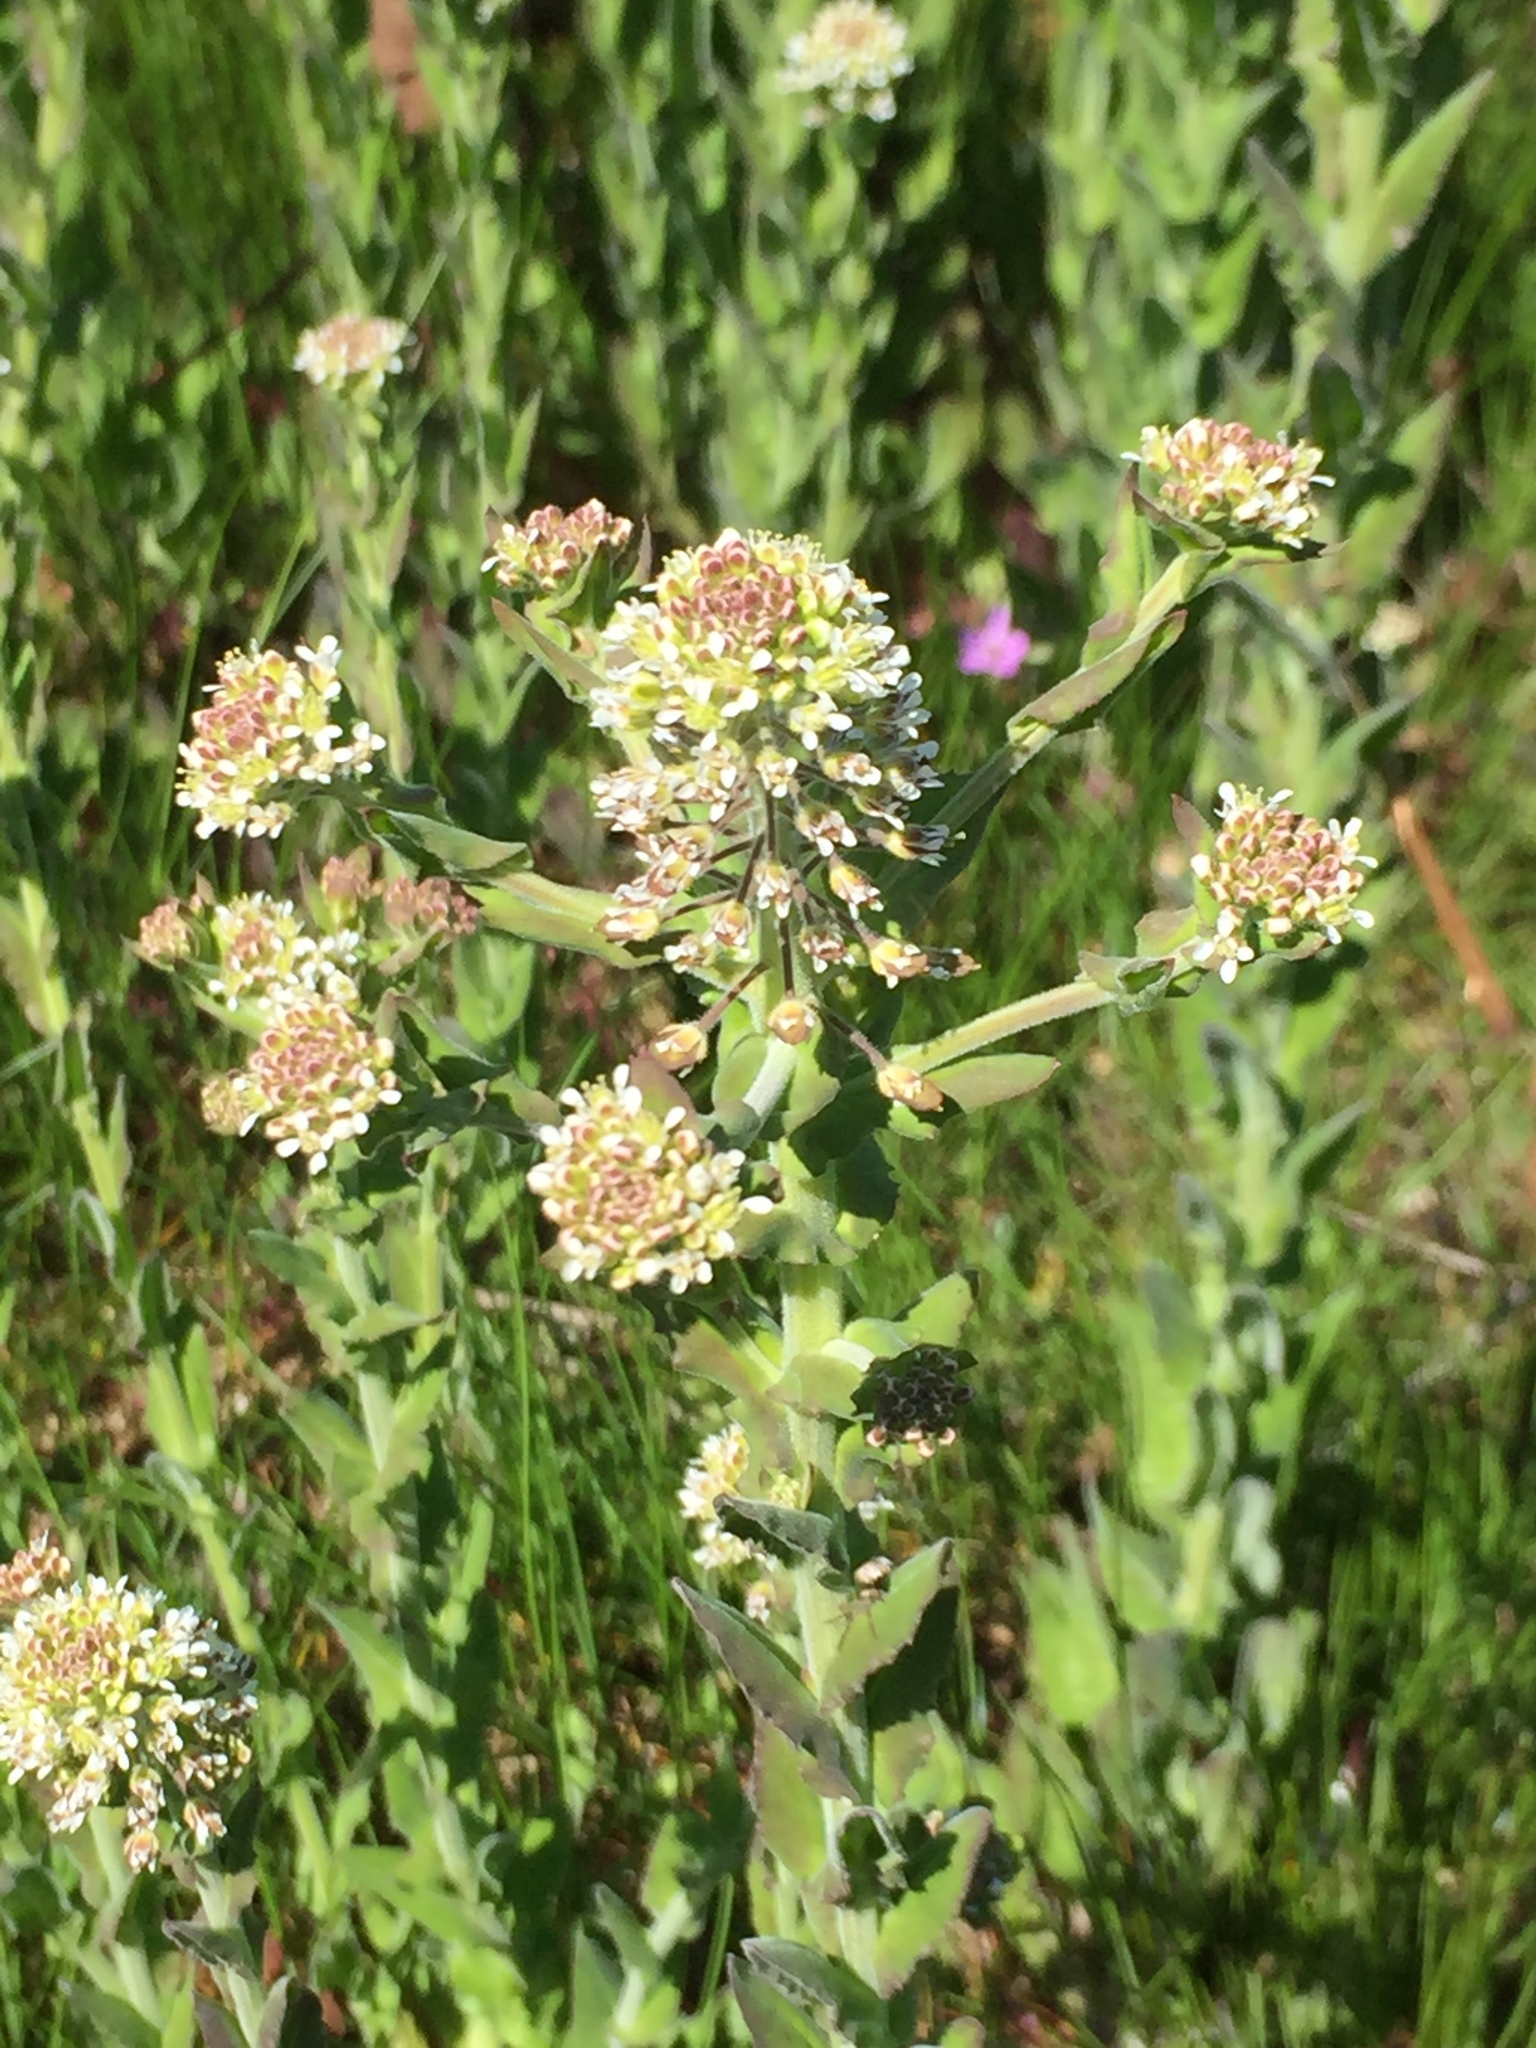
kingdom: Plantae
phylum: Tracheophyta
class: Magnoliopsida
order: Brassicales
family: Brassicaceae
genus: Lepidium
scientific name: Lepidium campestre
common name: Field pepperwort
